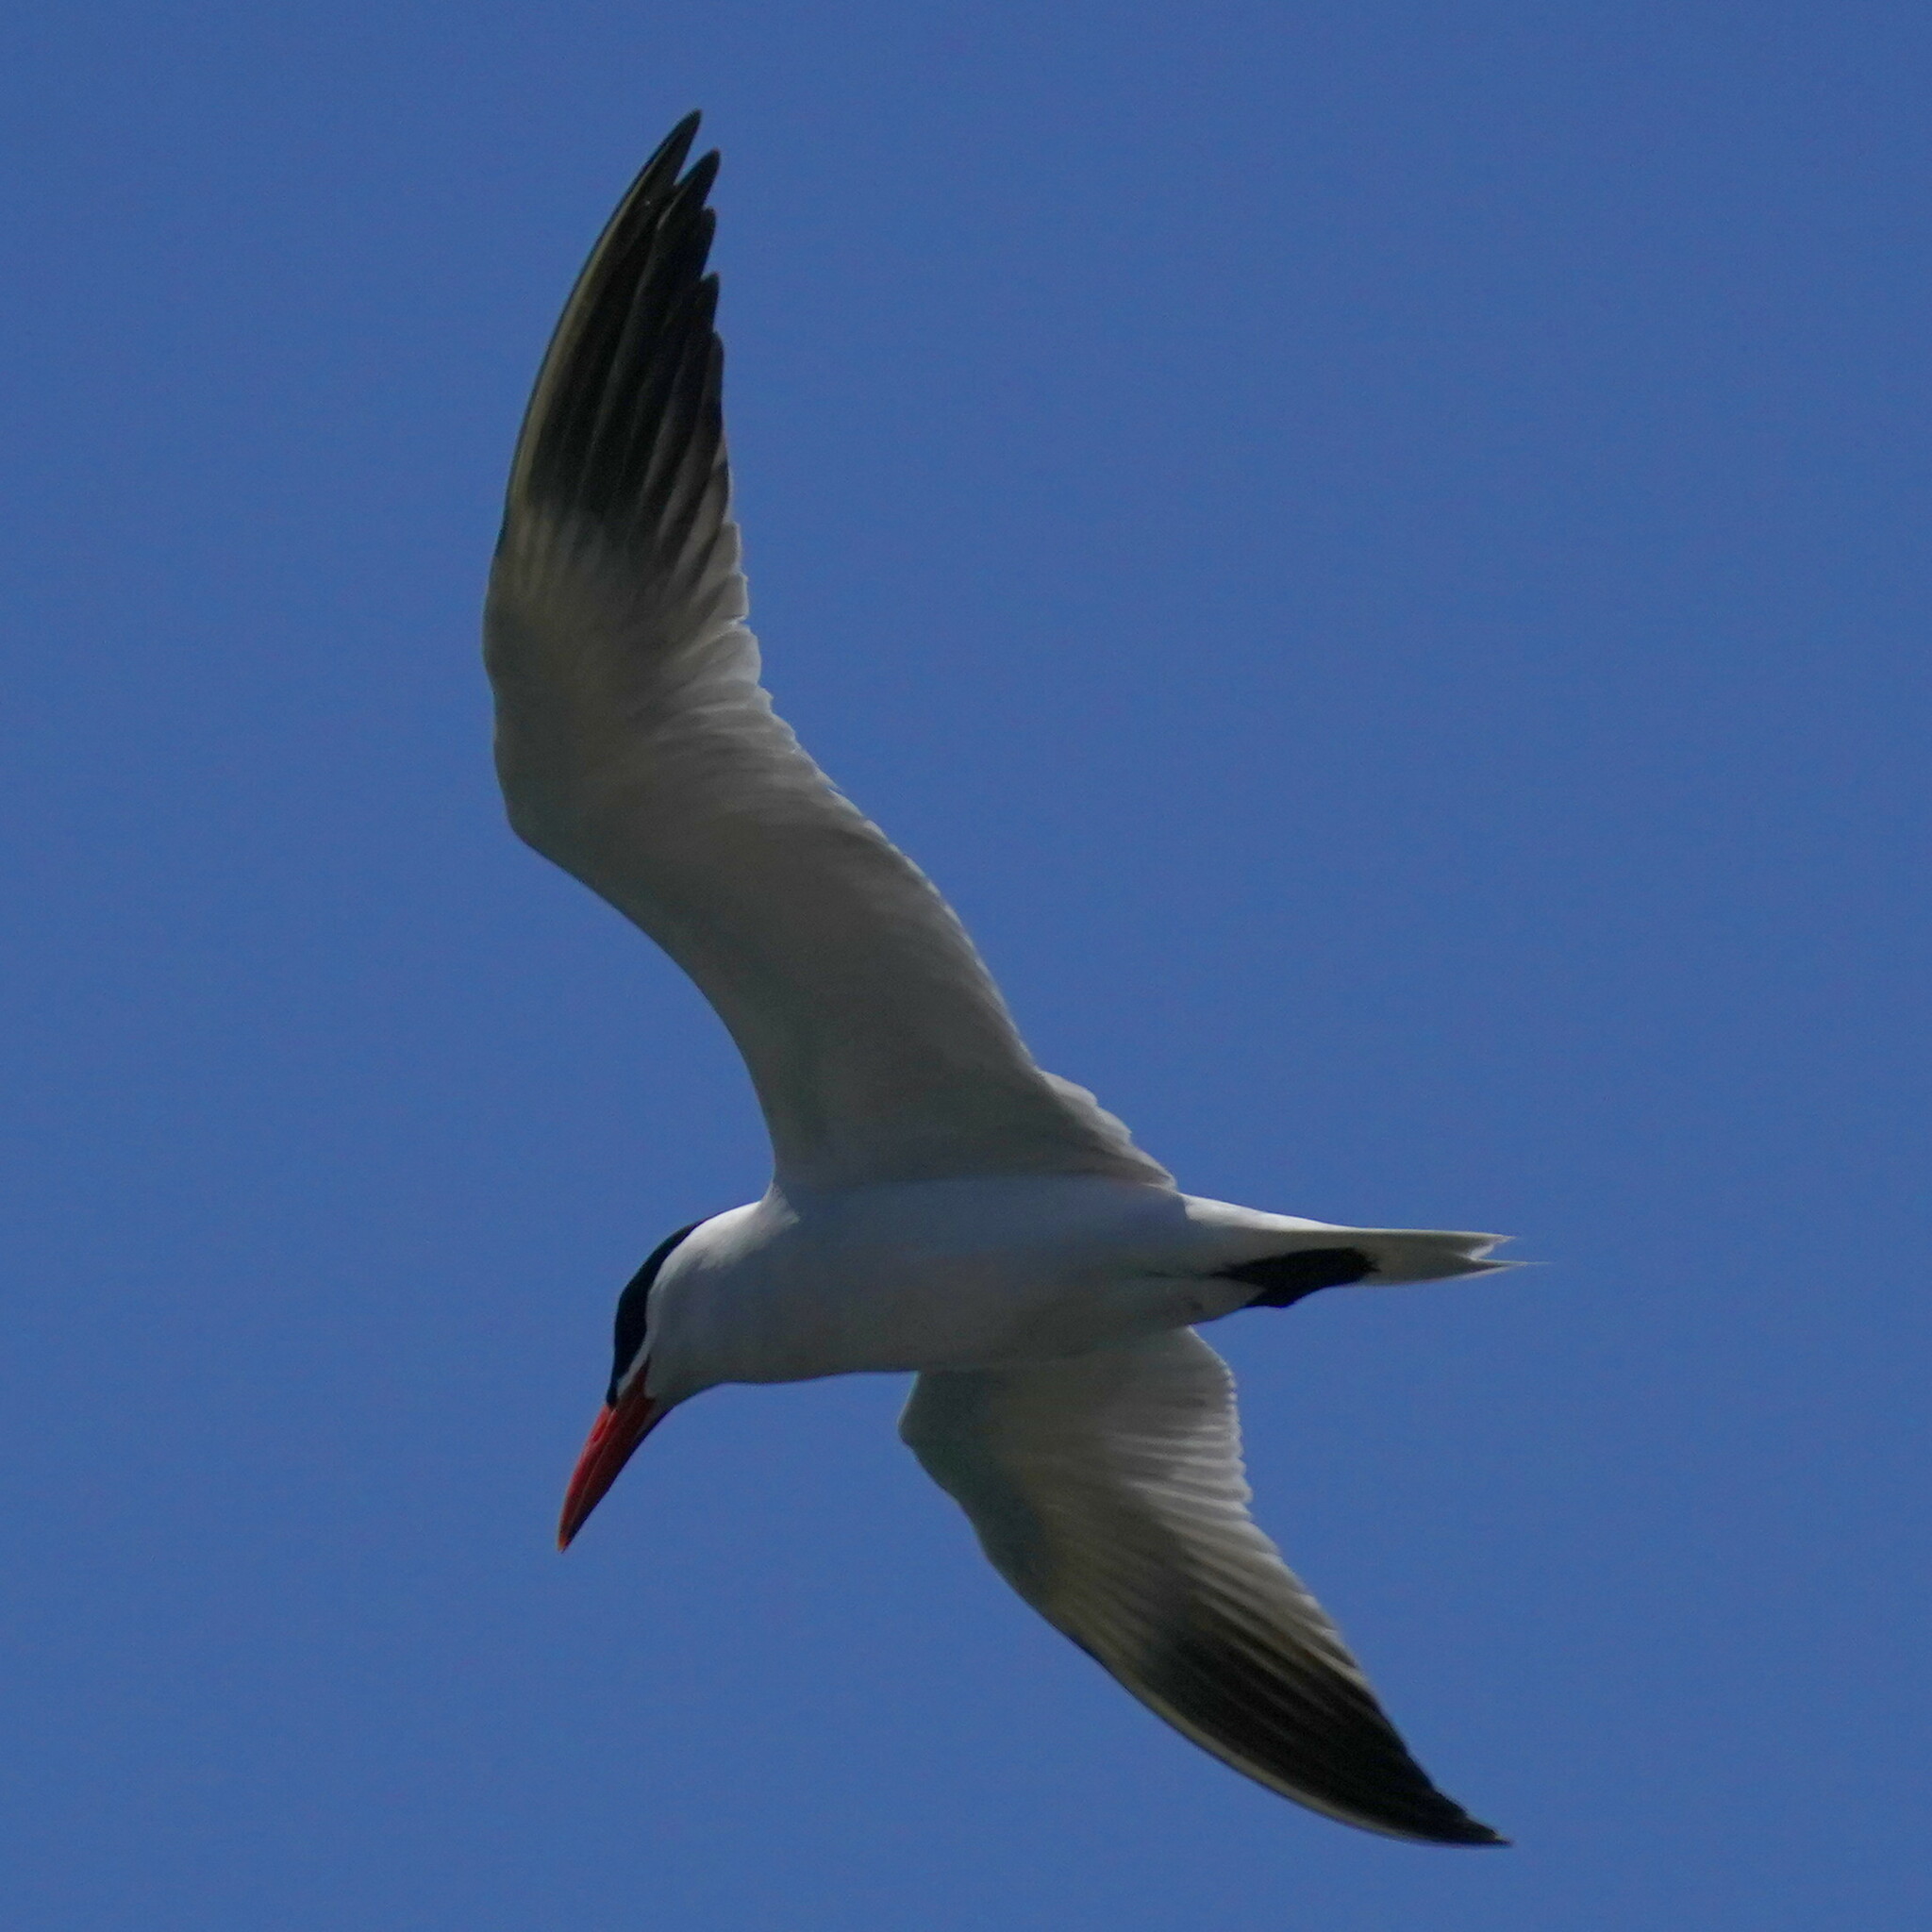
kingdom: Animalia
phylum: Chordata
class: Aves
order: Charadriiformes
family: Laridae
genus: Hydroprogne
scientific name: Hydroprogne caspia
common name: Caspian tern
